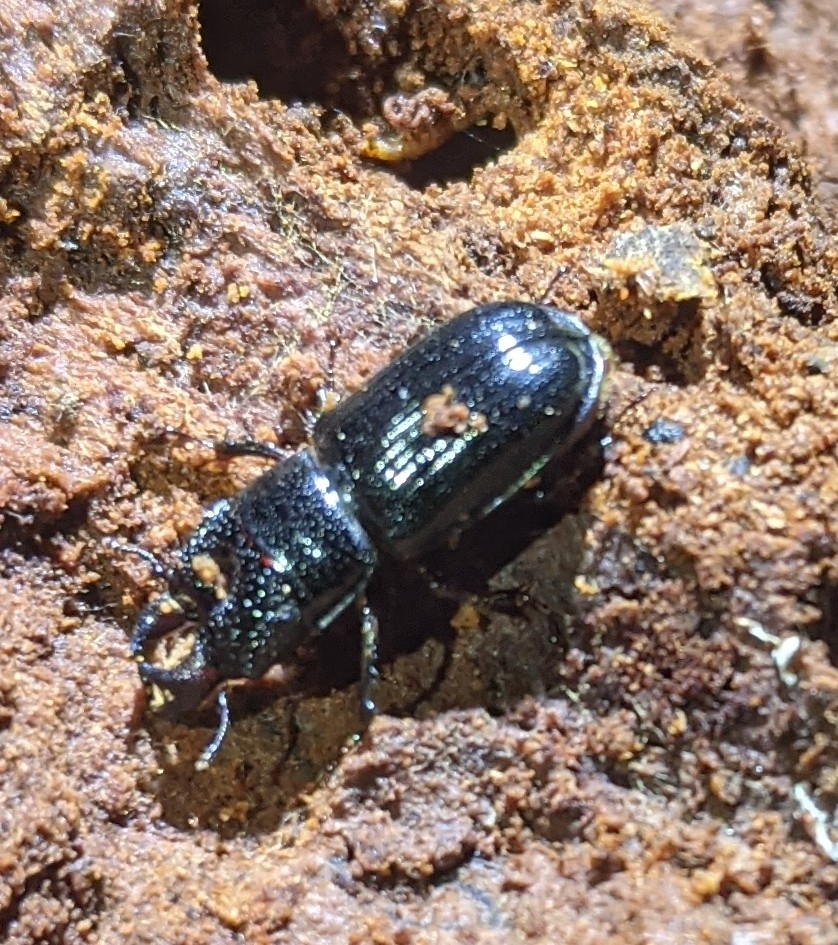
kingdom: Animalia
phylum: Arthropoda
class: Insecta
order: Coleoptera
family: Lucanidae
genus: Ceruchus
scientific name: Ceruchus piceus
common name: Red-rot decay stag beetle
